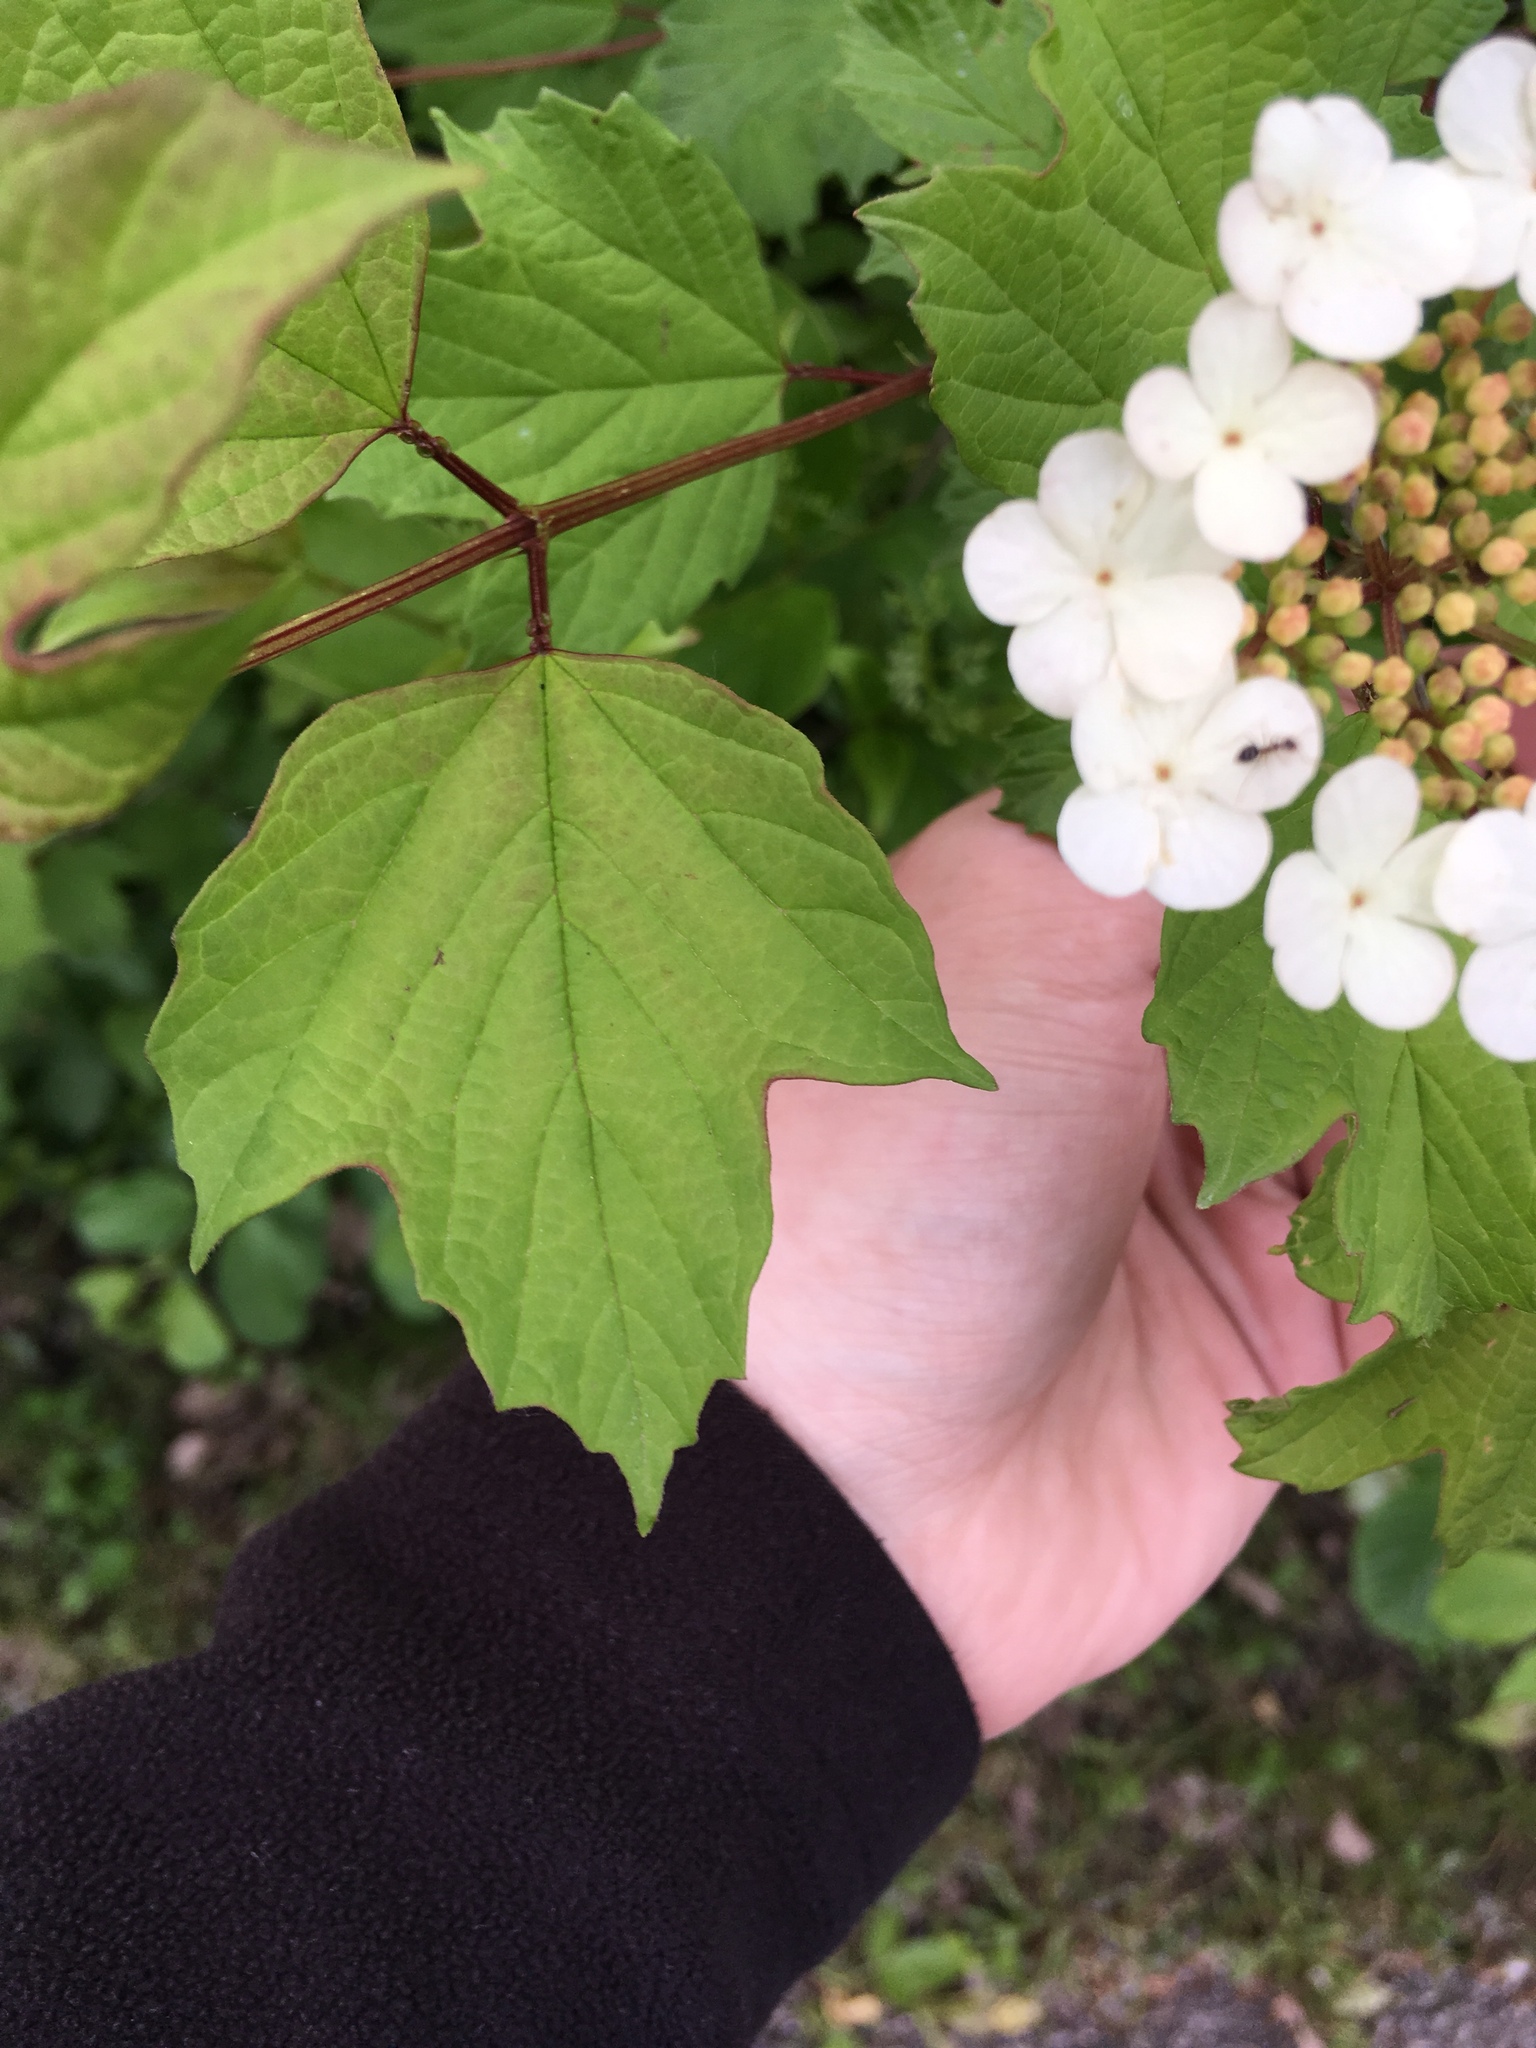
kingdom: Plantae
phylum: Tracheophyta
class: Magnoliopsida
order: Dipsacales
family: Viburnaceae
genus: Viburnum
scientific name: Viburnum opulus
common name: Guelder-rose
